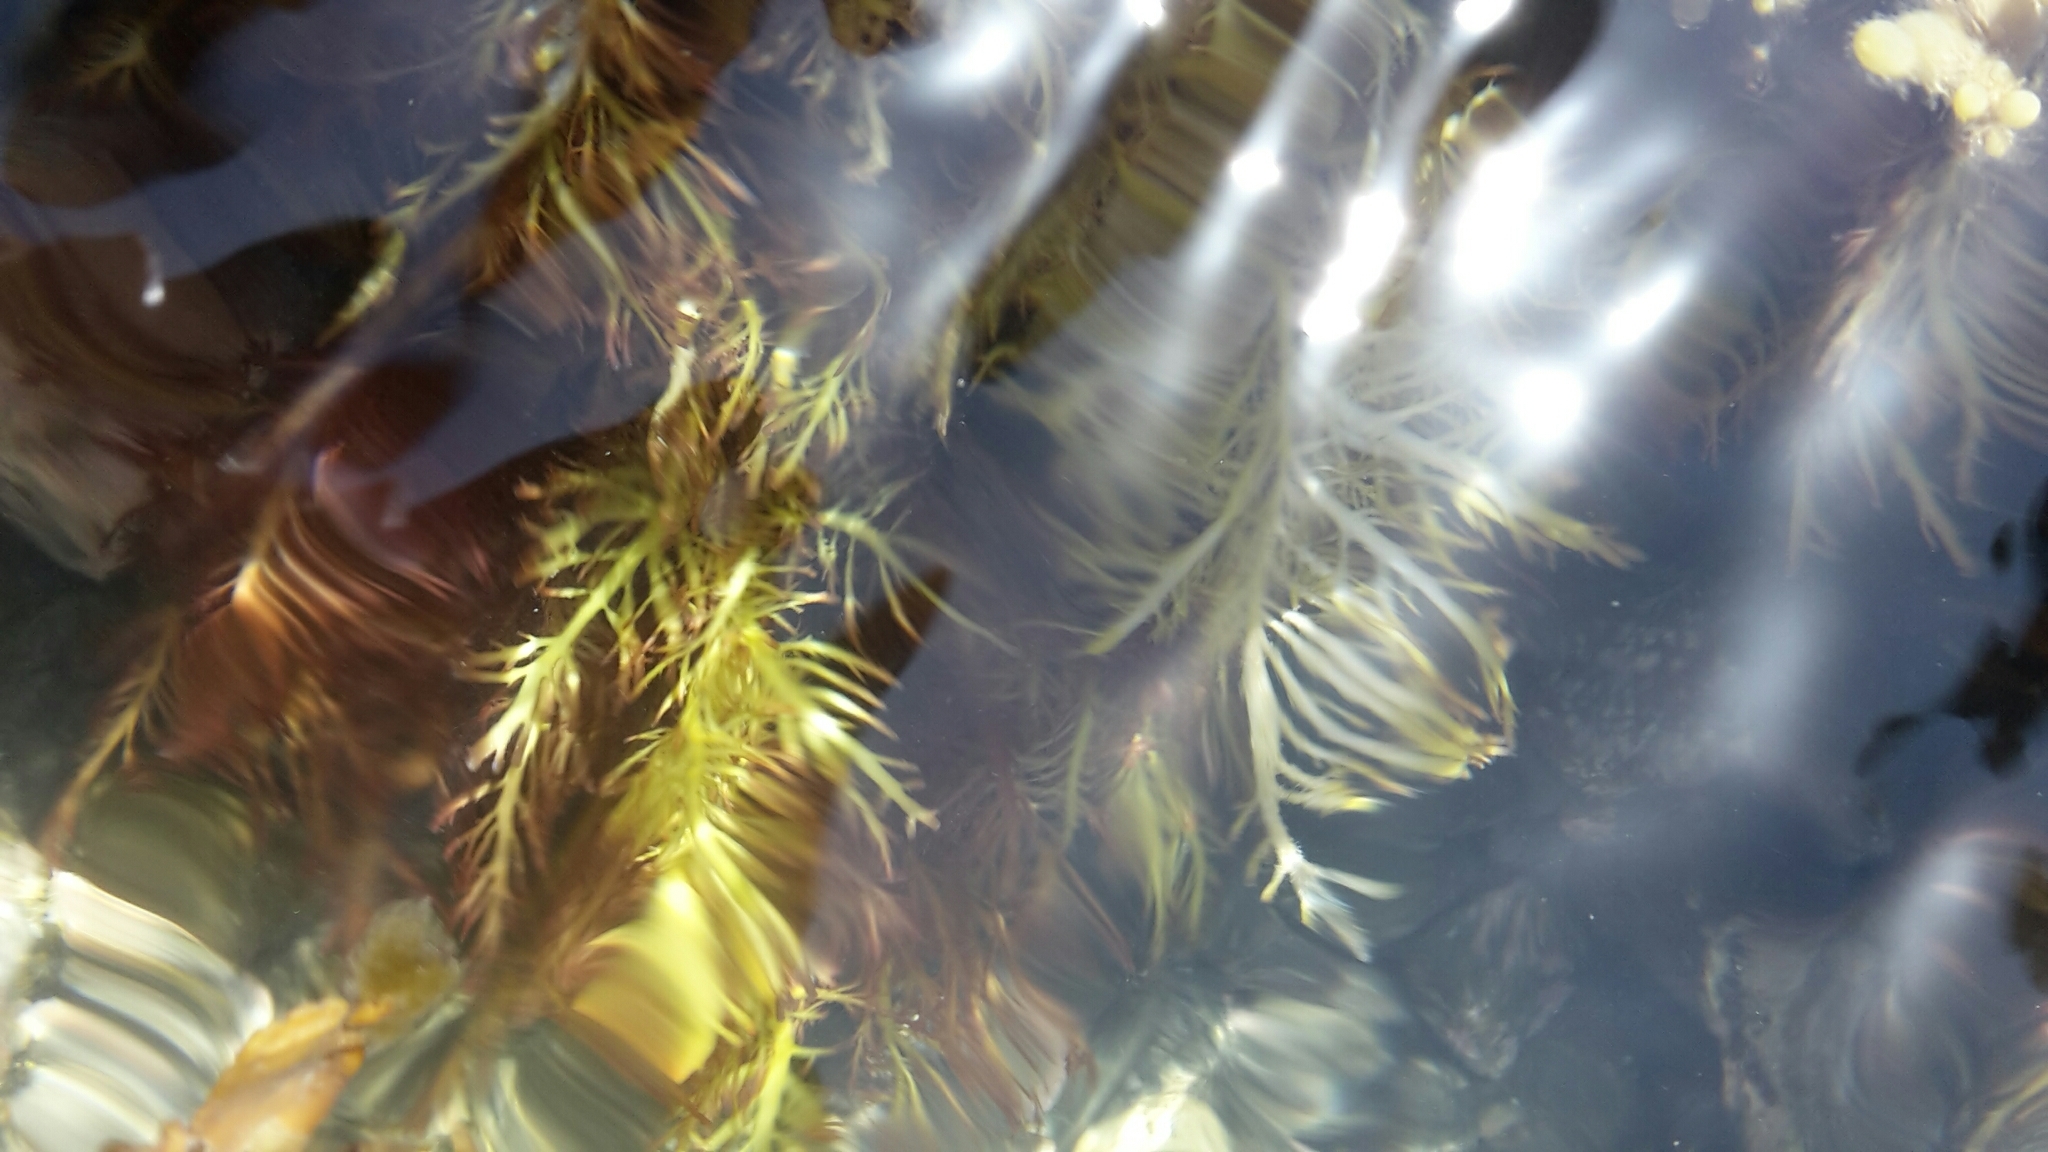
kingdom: Plantae
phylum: Rhodophyta
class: Florideophyceae
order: Gelidiales
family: Pterocladiaceae
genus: Pterocladia
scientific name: Pterocladia lucida
